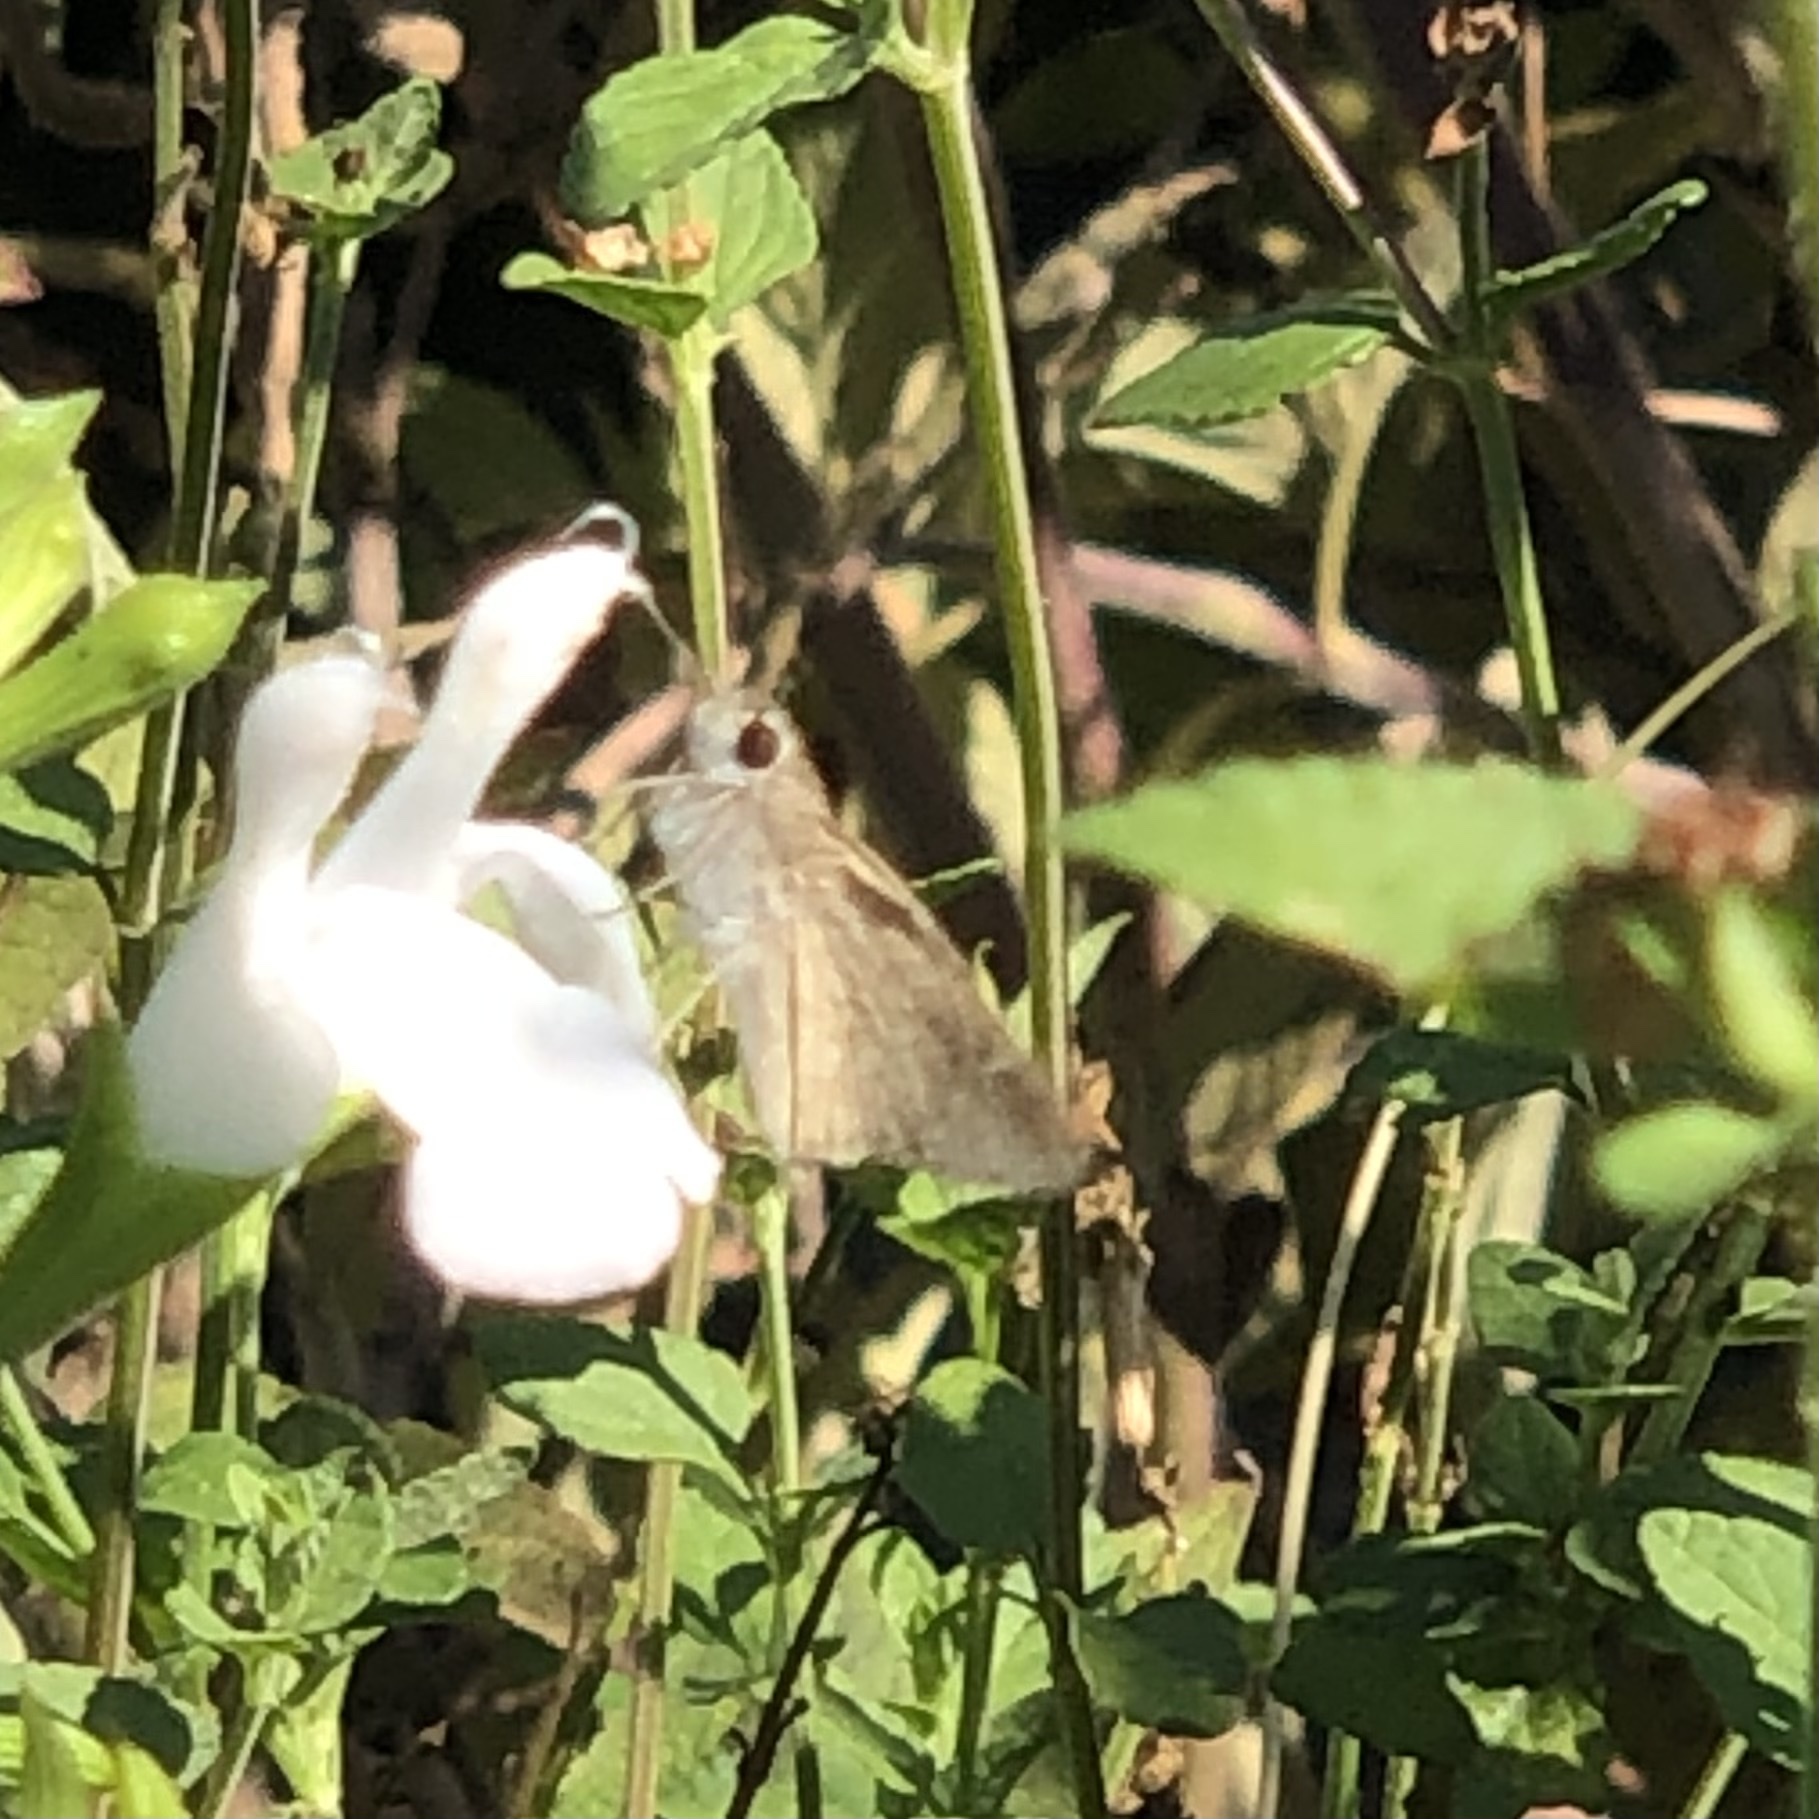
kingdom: Animalia
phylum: Arthropoda
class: Insecta
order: Lepidoptera
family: Hesperiidae
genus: Lerodea
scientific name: Lerodea eufala
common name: Eufala skipper
